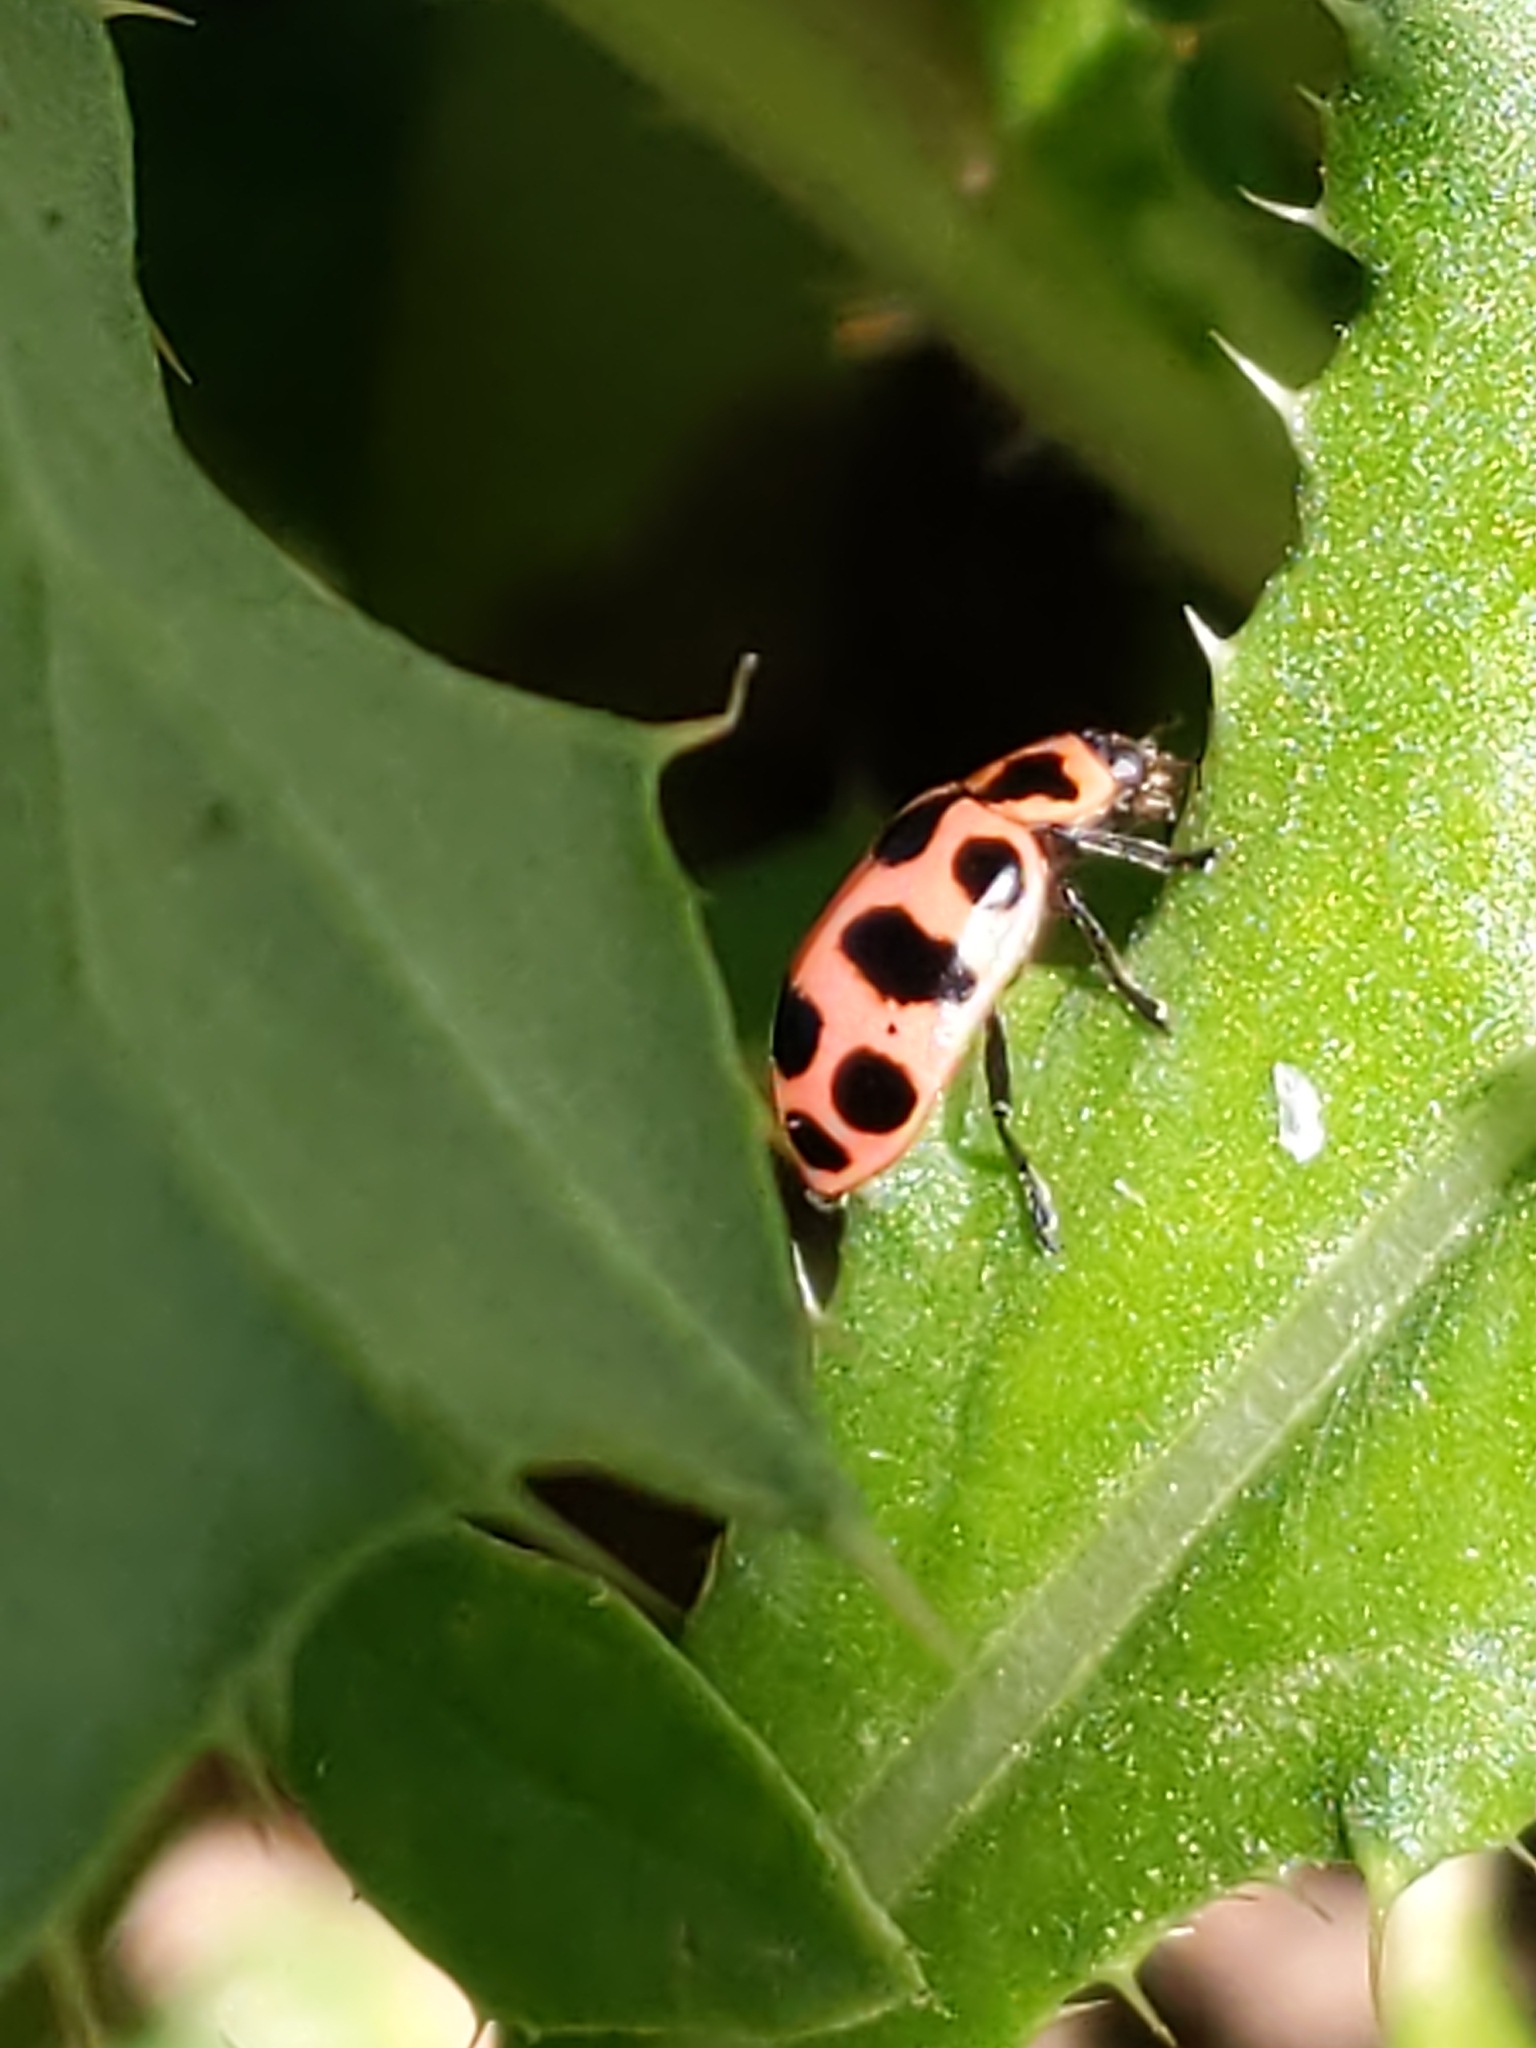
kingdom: Animalia
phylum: Arthropoda
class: Insecta
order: Coleoptera
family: Coccinellidae
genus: Coleomegilla
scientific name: Coleomegilla maculata
